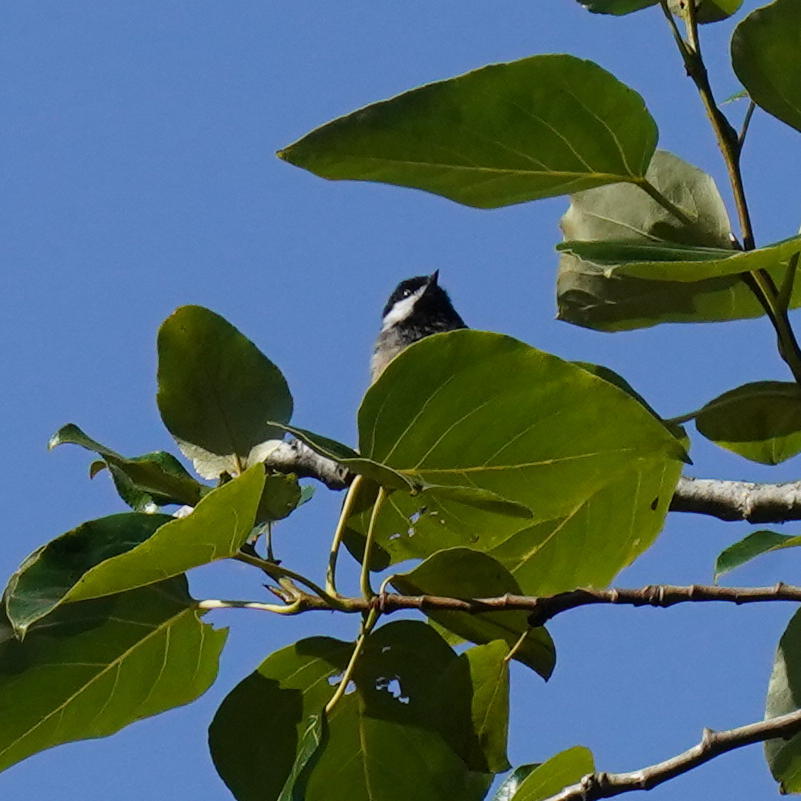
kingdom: Animalia
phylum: Chordata
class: Aves
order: Passeriformes
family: Paridae
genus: Poecile
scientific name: Poecile atricapillus
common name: Black-capped chickadee
